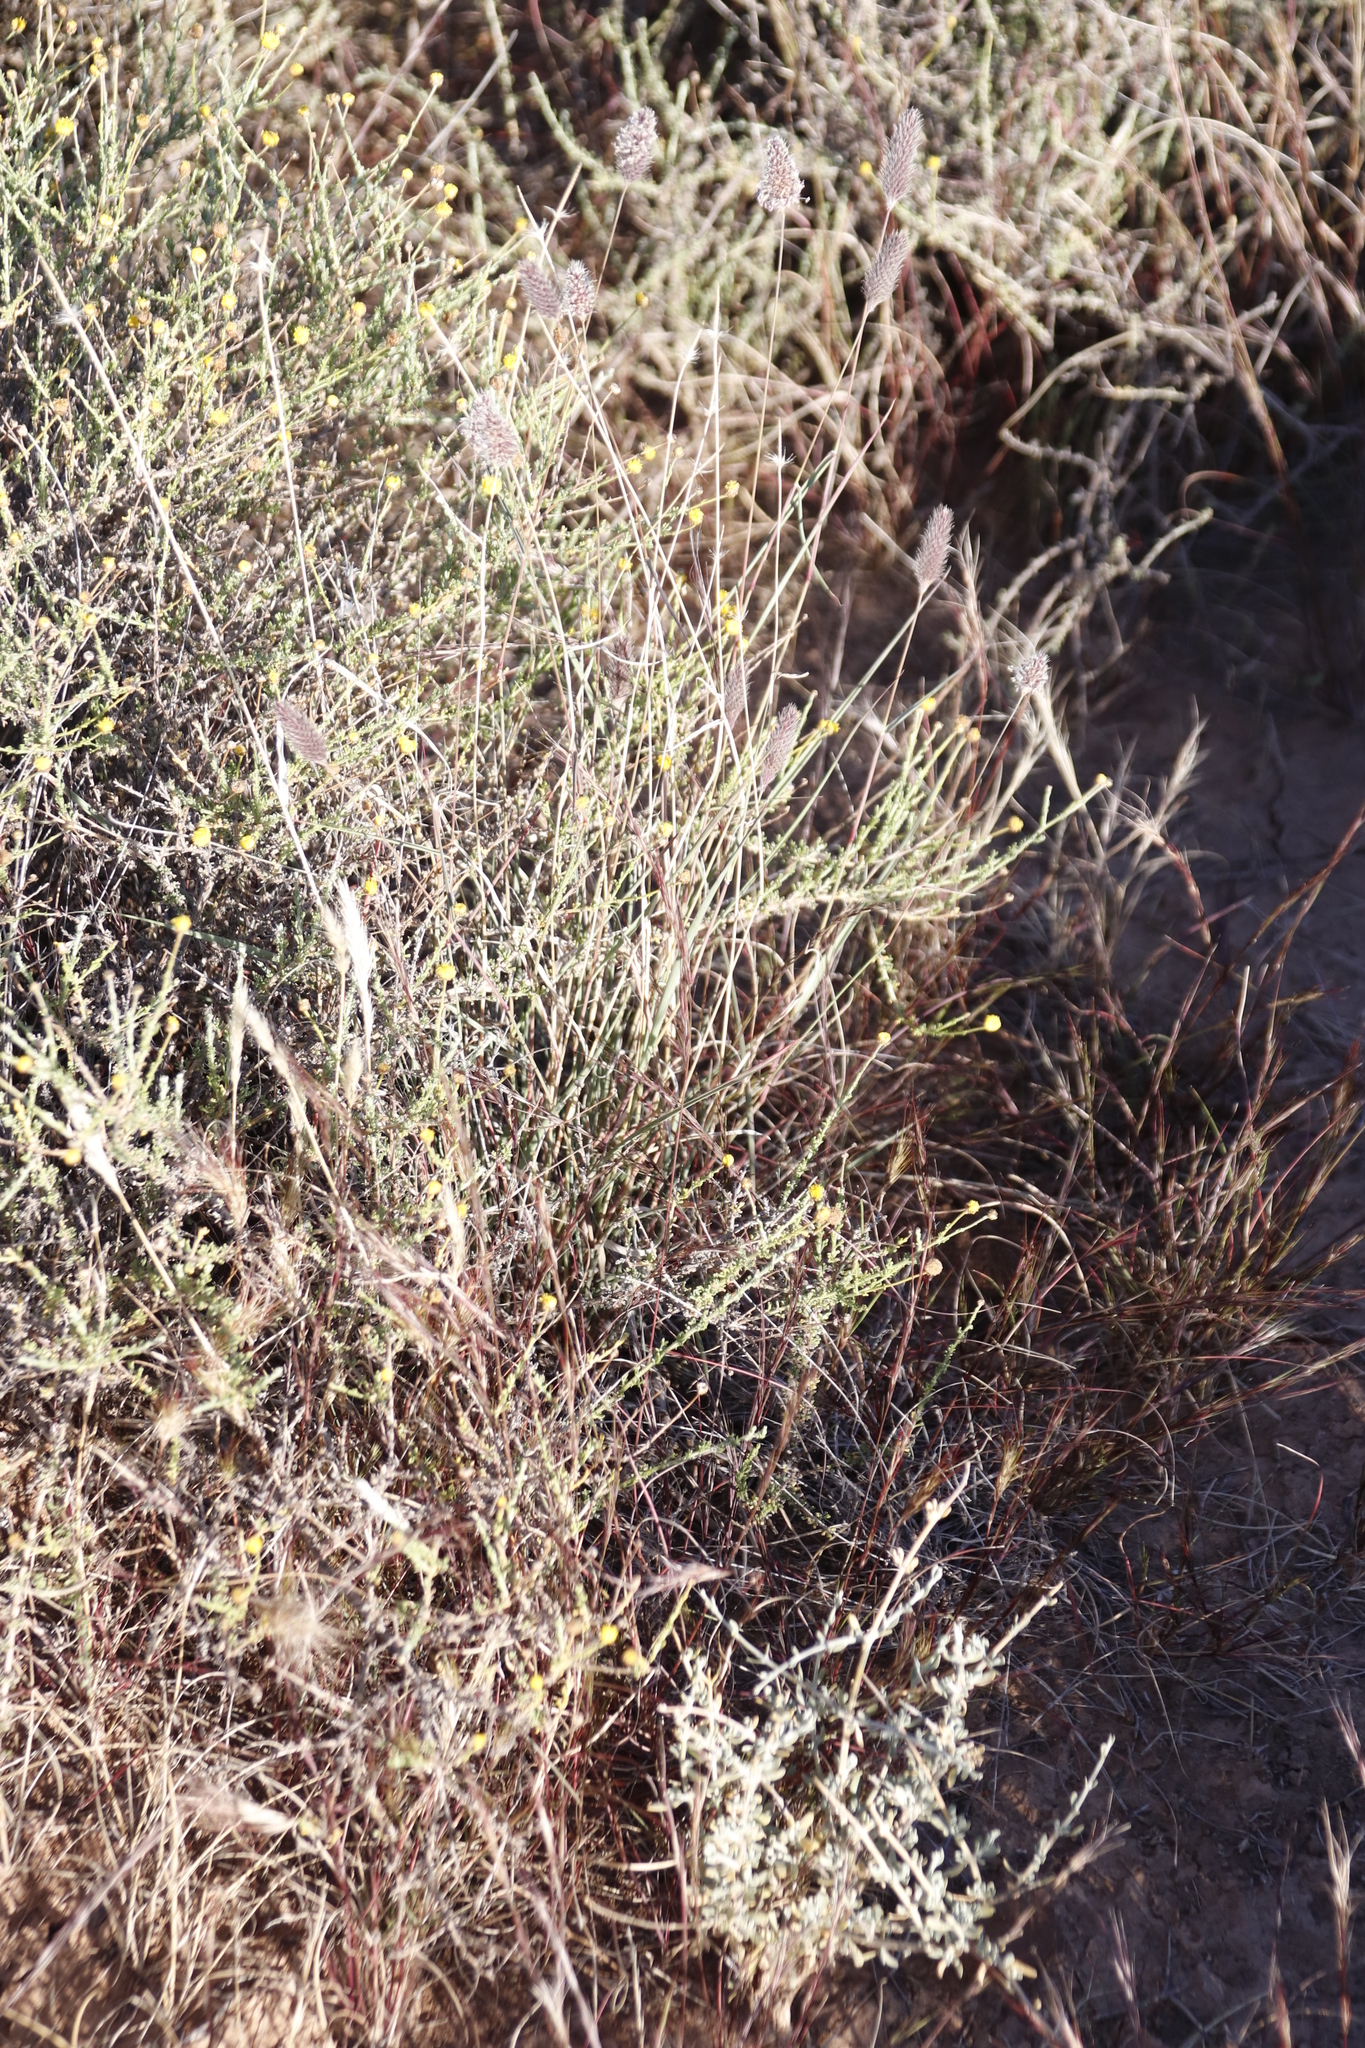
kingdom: Plantae
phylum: Tracheophyta
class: Liliopsida
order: Poales
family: Poaceae
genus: Fingerhuthia
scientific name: Fingerhuthia africana
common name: Zulu fescue
